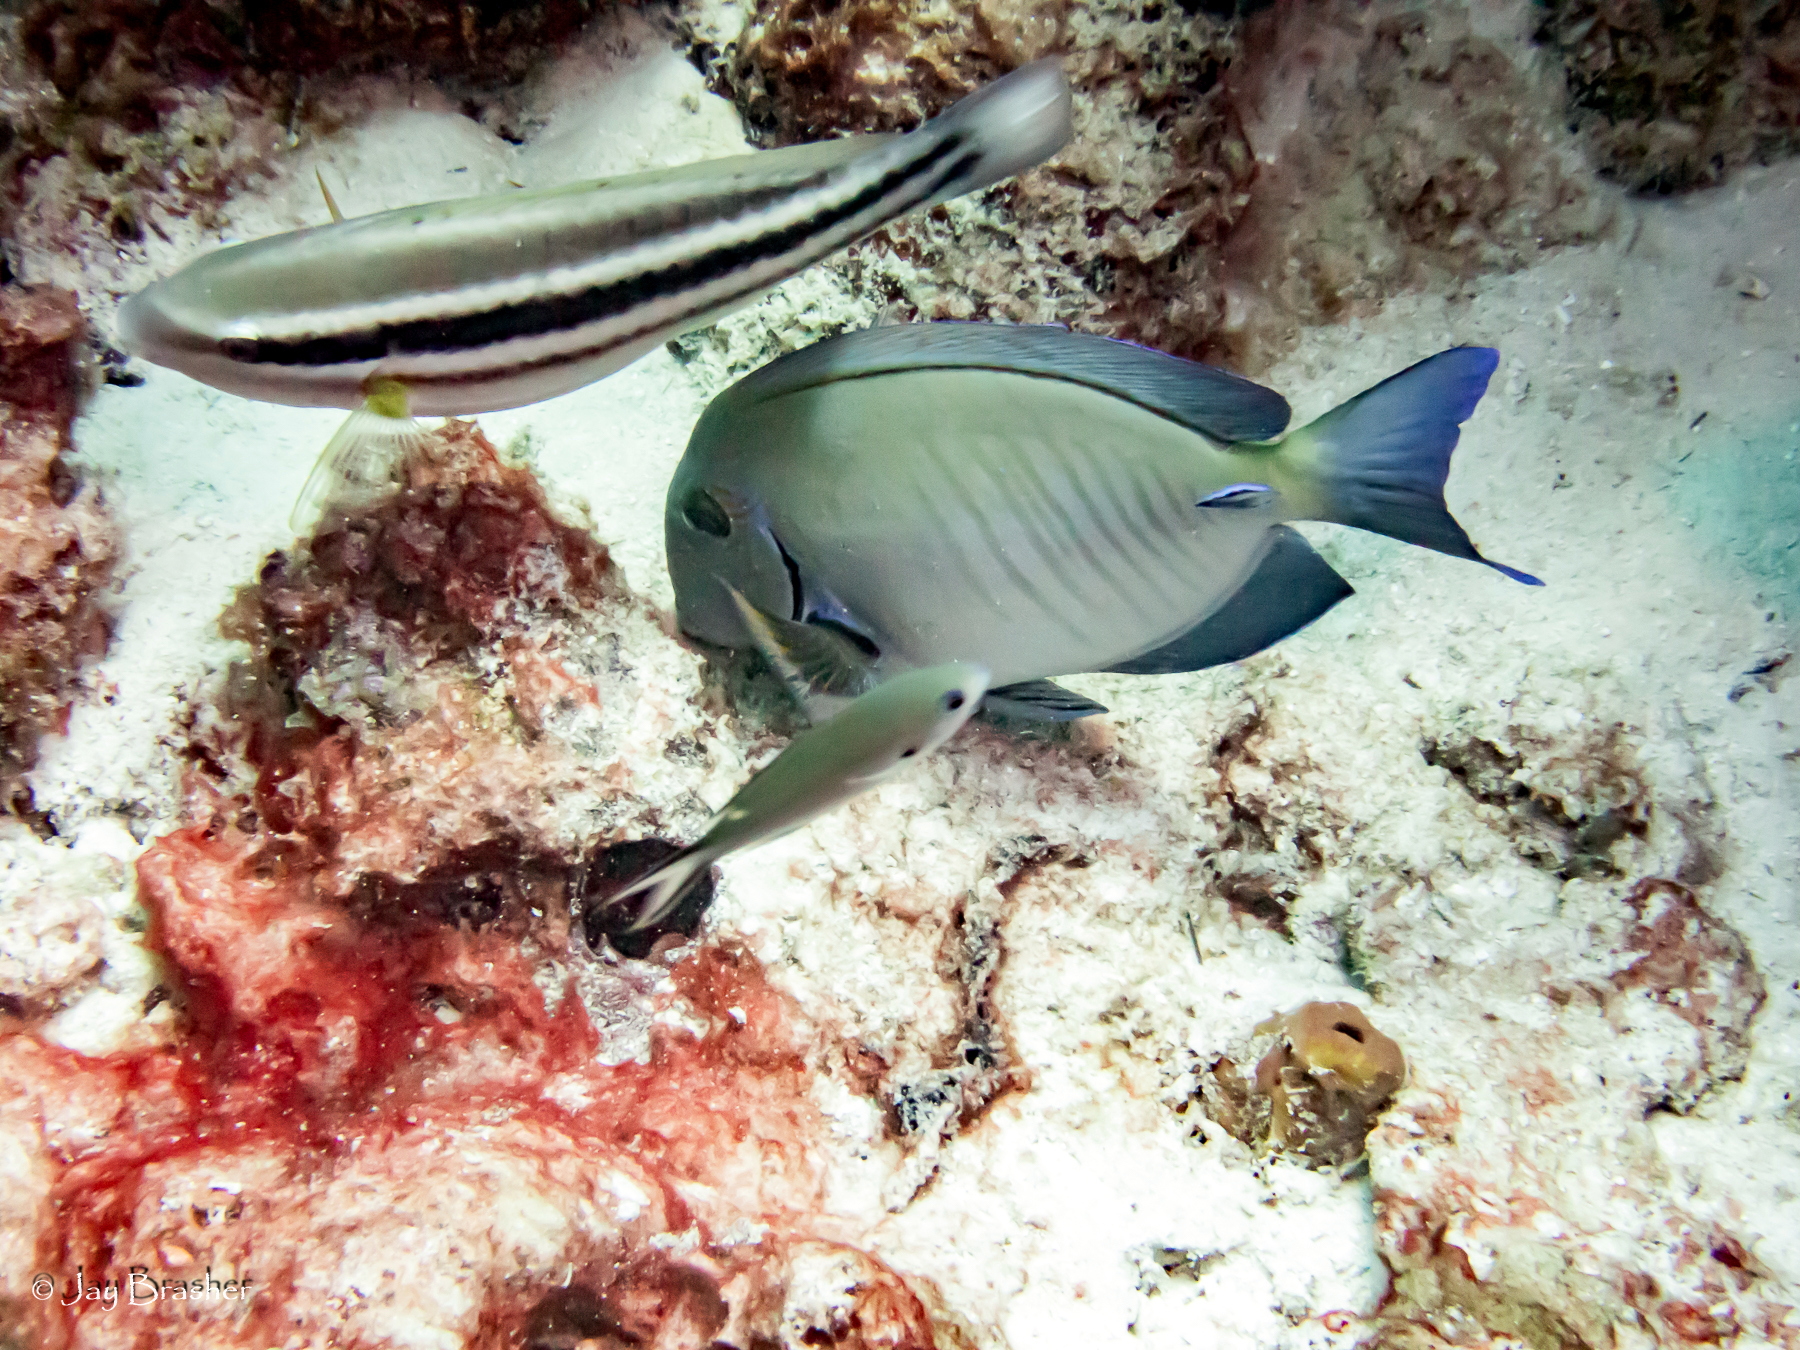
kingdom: Animalia
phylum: Chordata
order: Perciformes
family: Scaridae
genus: Scarus
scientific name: Scarus taeniopterus
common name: Princess parrotfish
